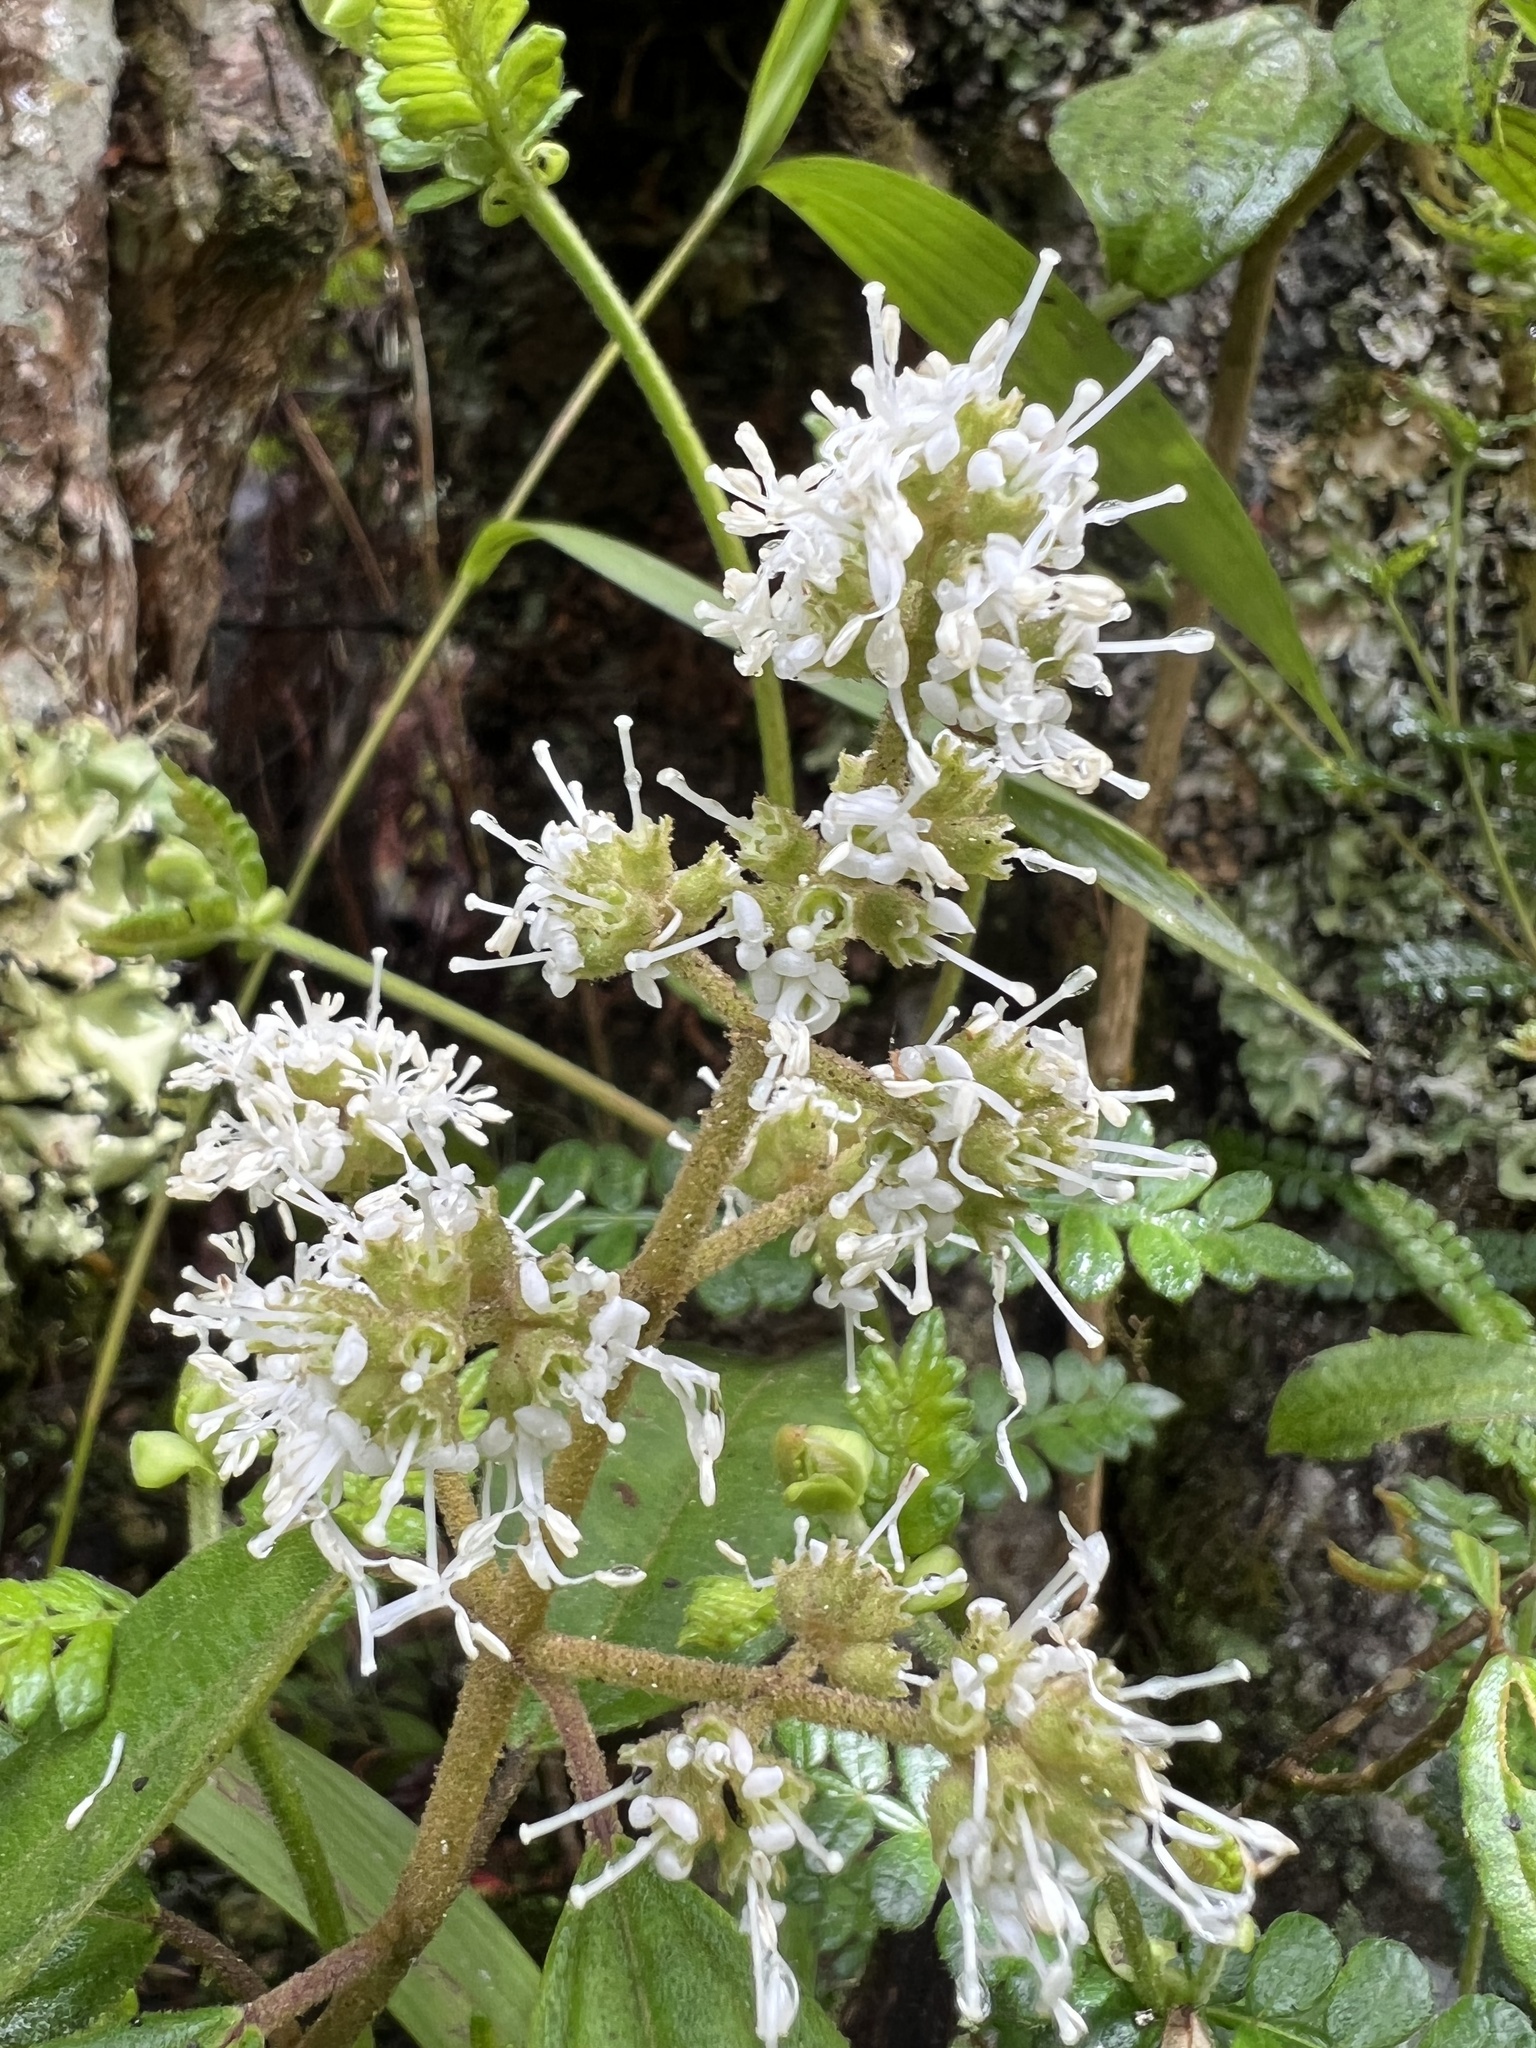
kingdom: Plantae
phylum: Tracheophyta
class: Magnoliopsida
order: Myrtales
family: Melastomataceae
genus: Miconia
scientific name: Miconia cataractae
